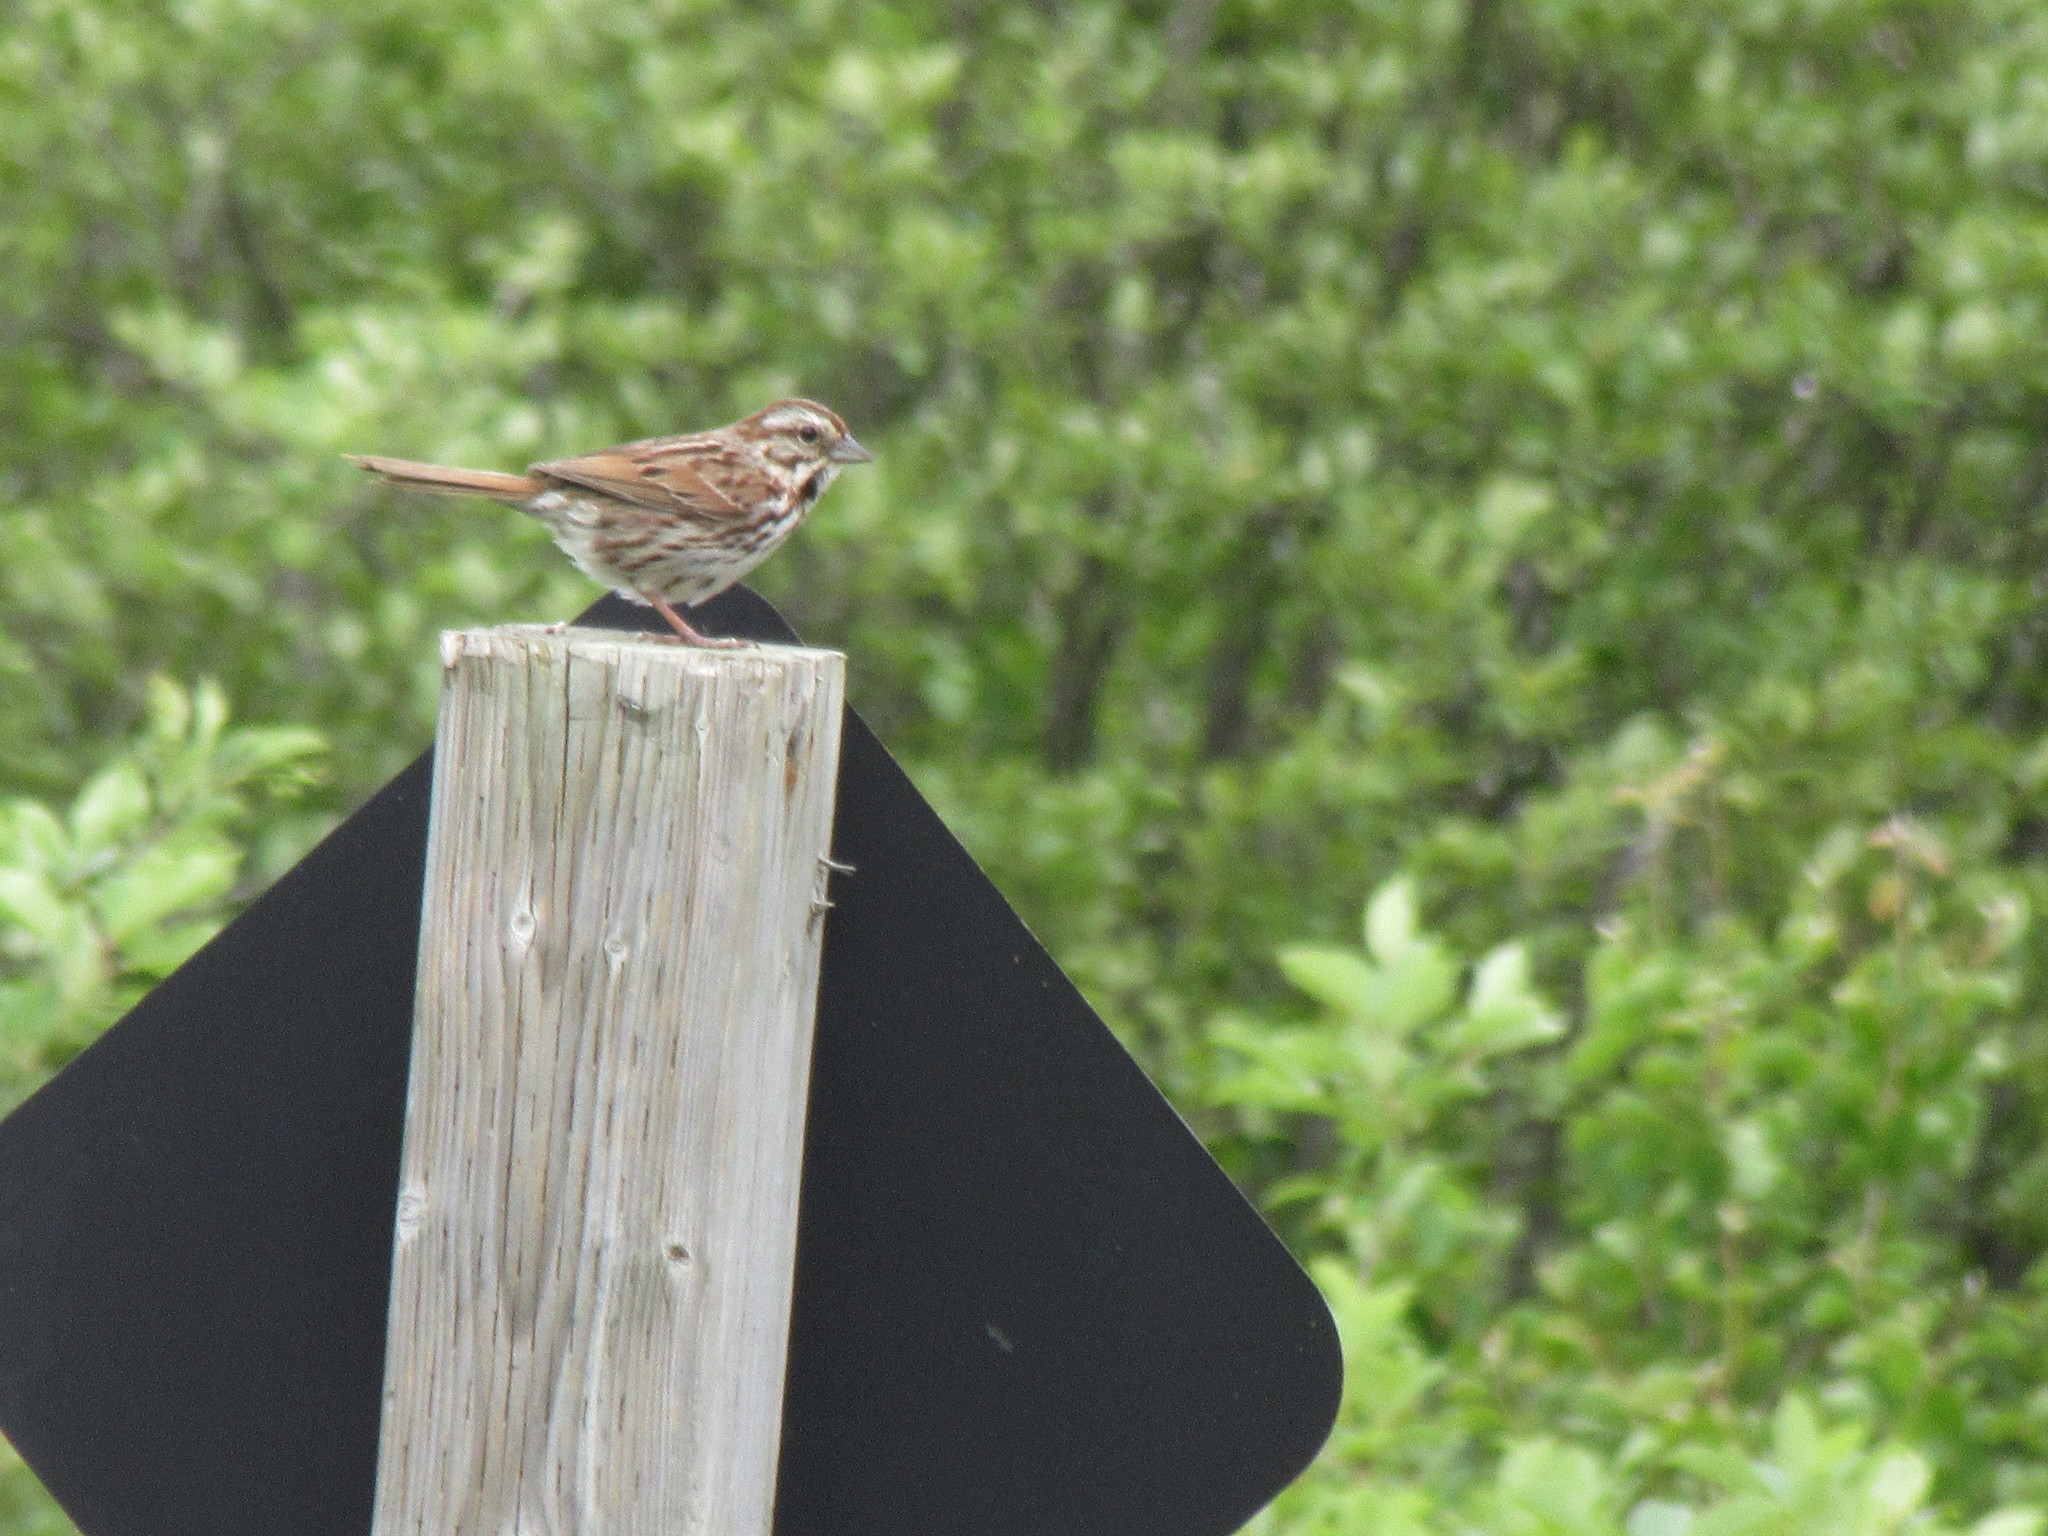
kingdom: Animalia
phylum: Chordata
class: Aves
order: Passeriformes
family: Passerellidae
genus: Melospiza
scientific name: Melospiza melodia
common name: Song sparrow
